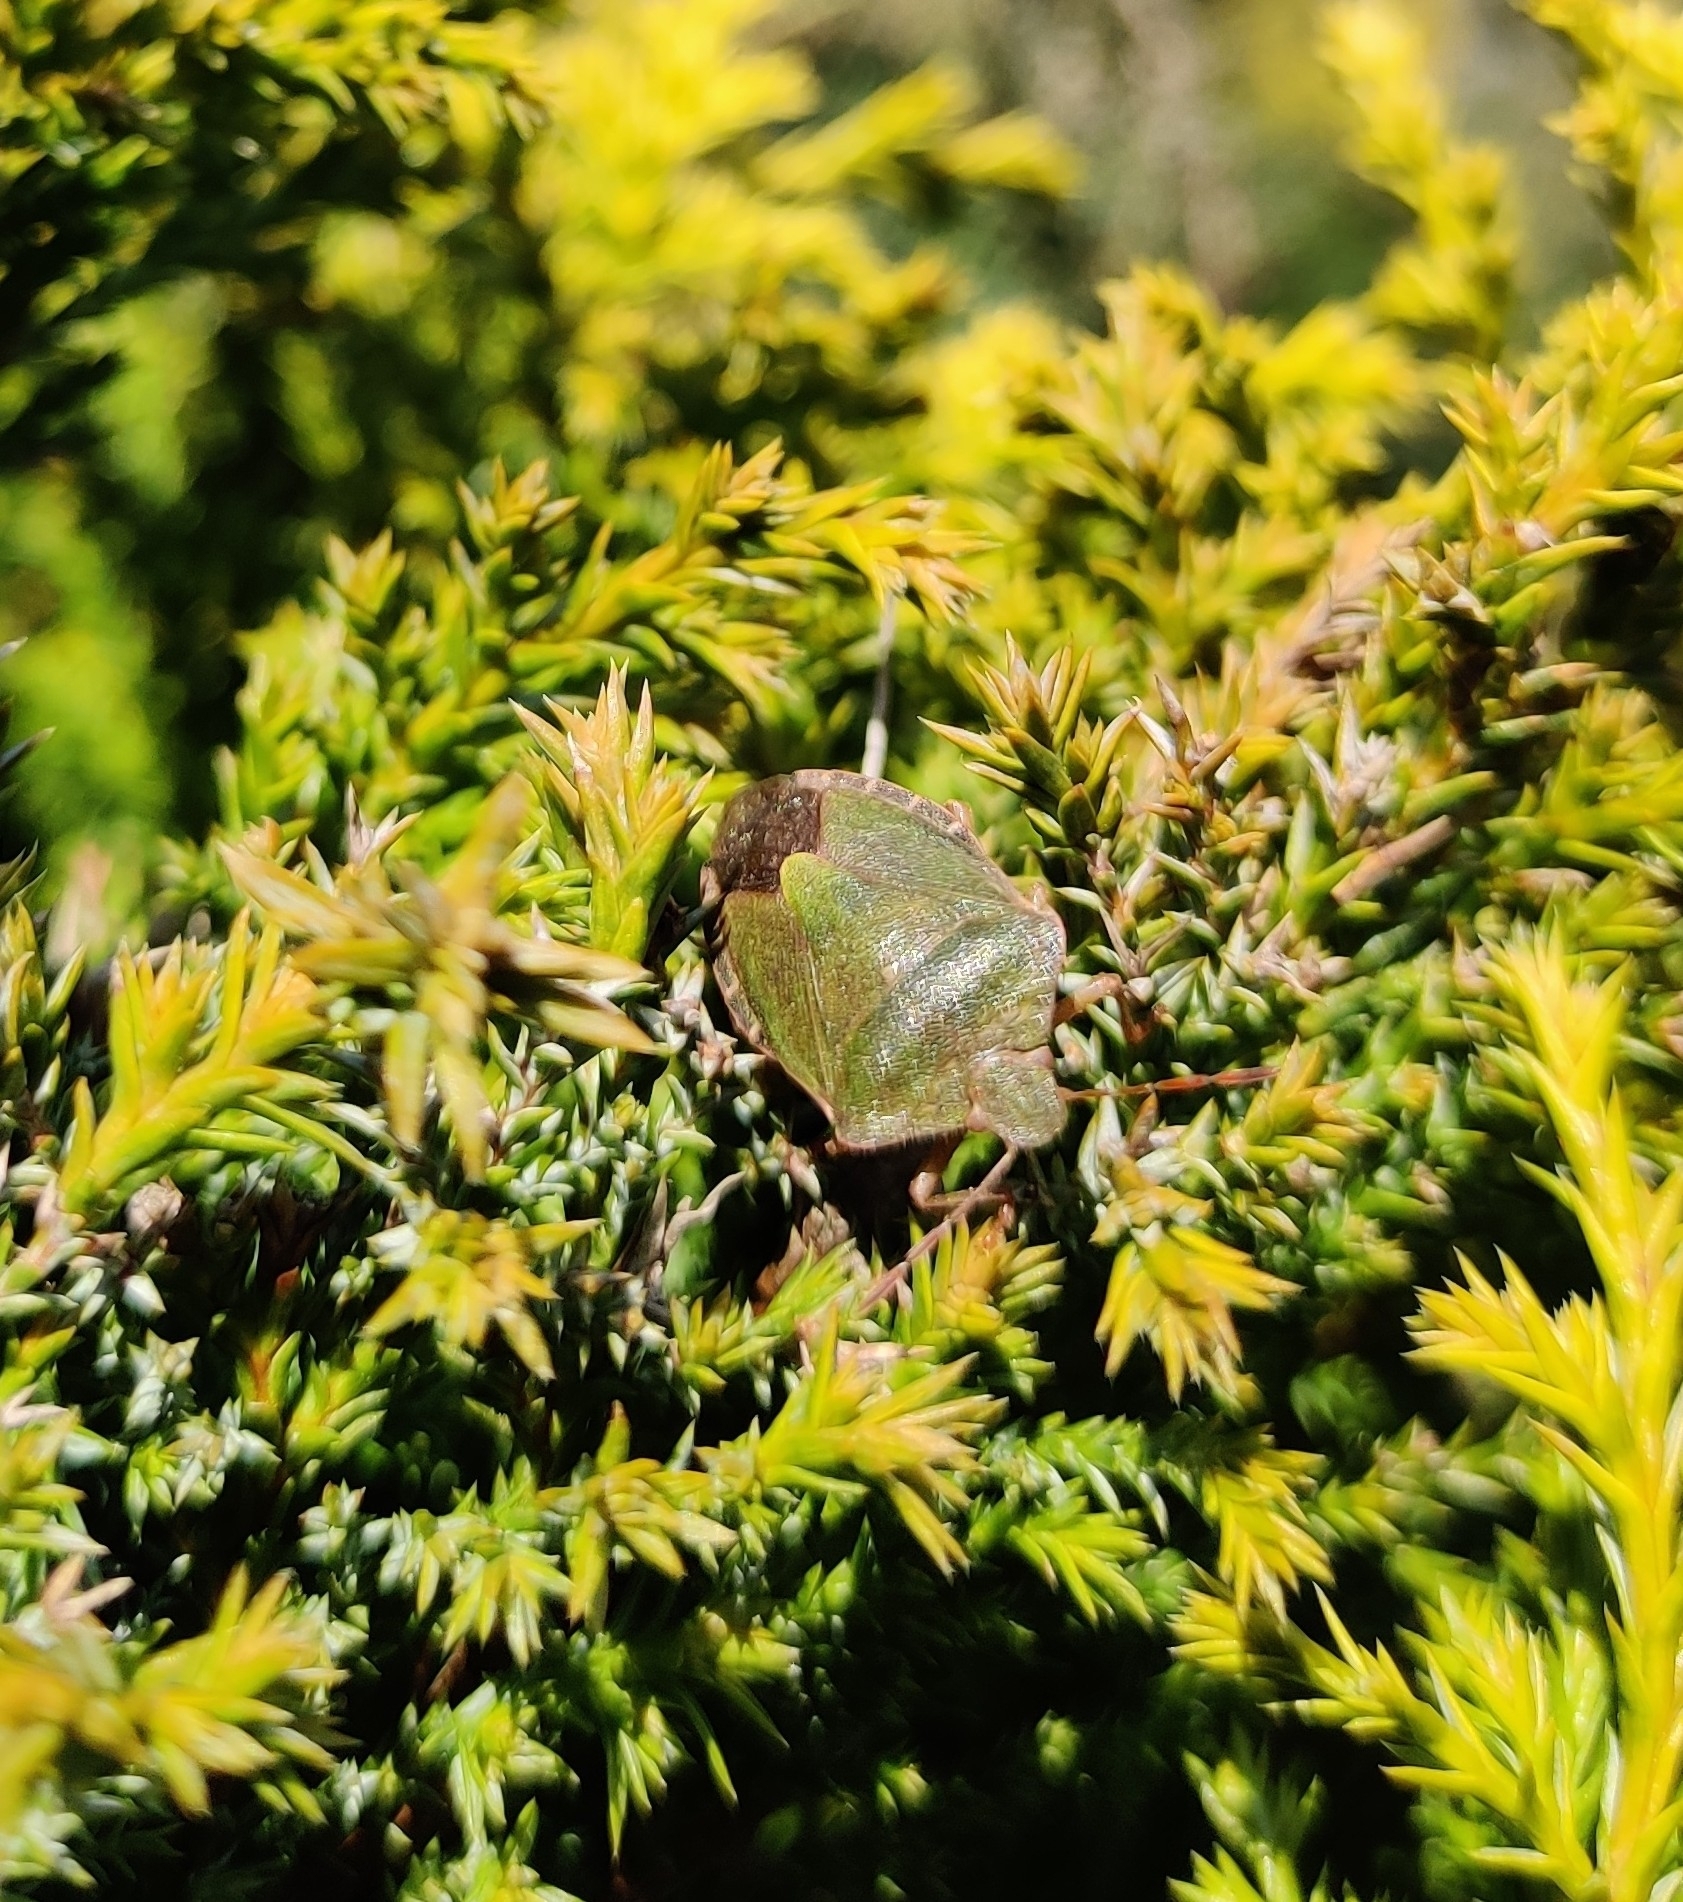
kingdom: Animalia
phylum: Arthropoda
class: Insecta
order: Hemiptera
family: Pentatomidae
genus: Palomena
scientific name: Palomena prasina
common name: Green shieldbug
